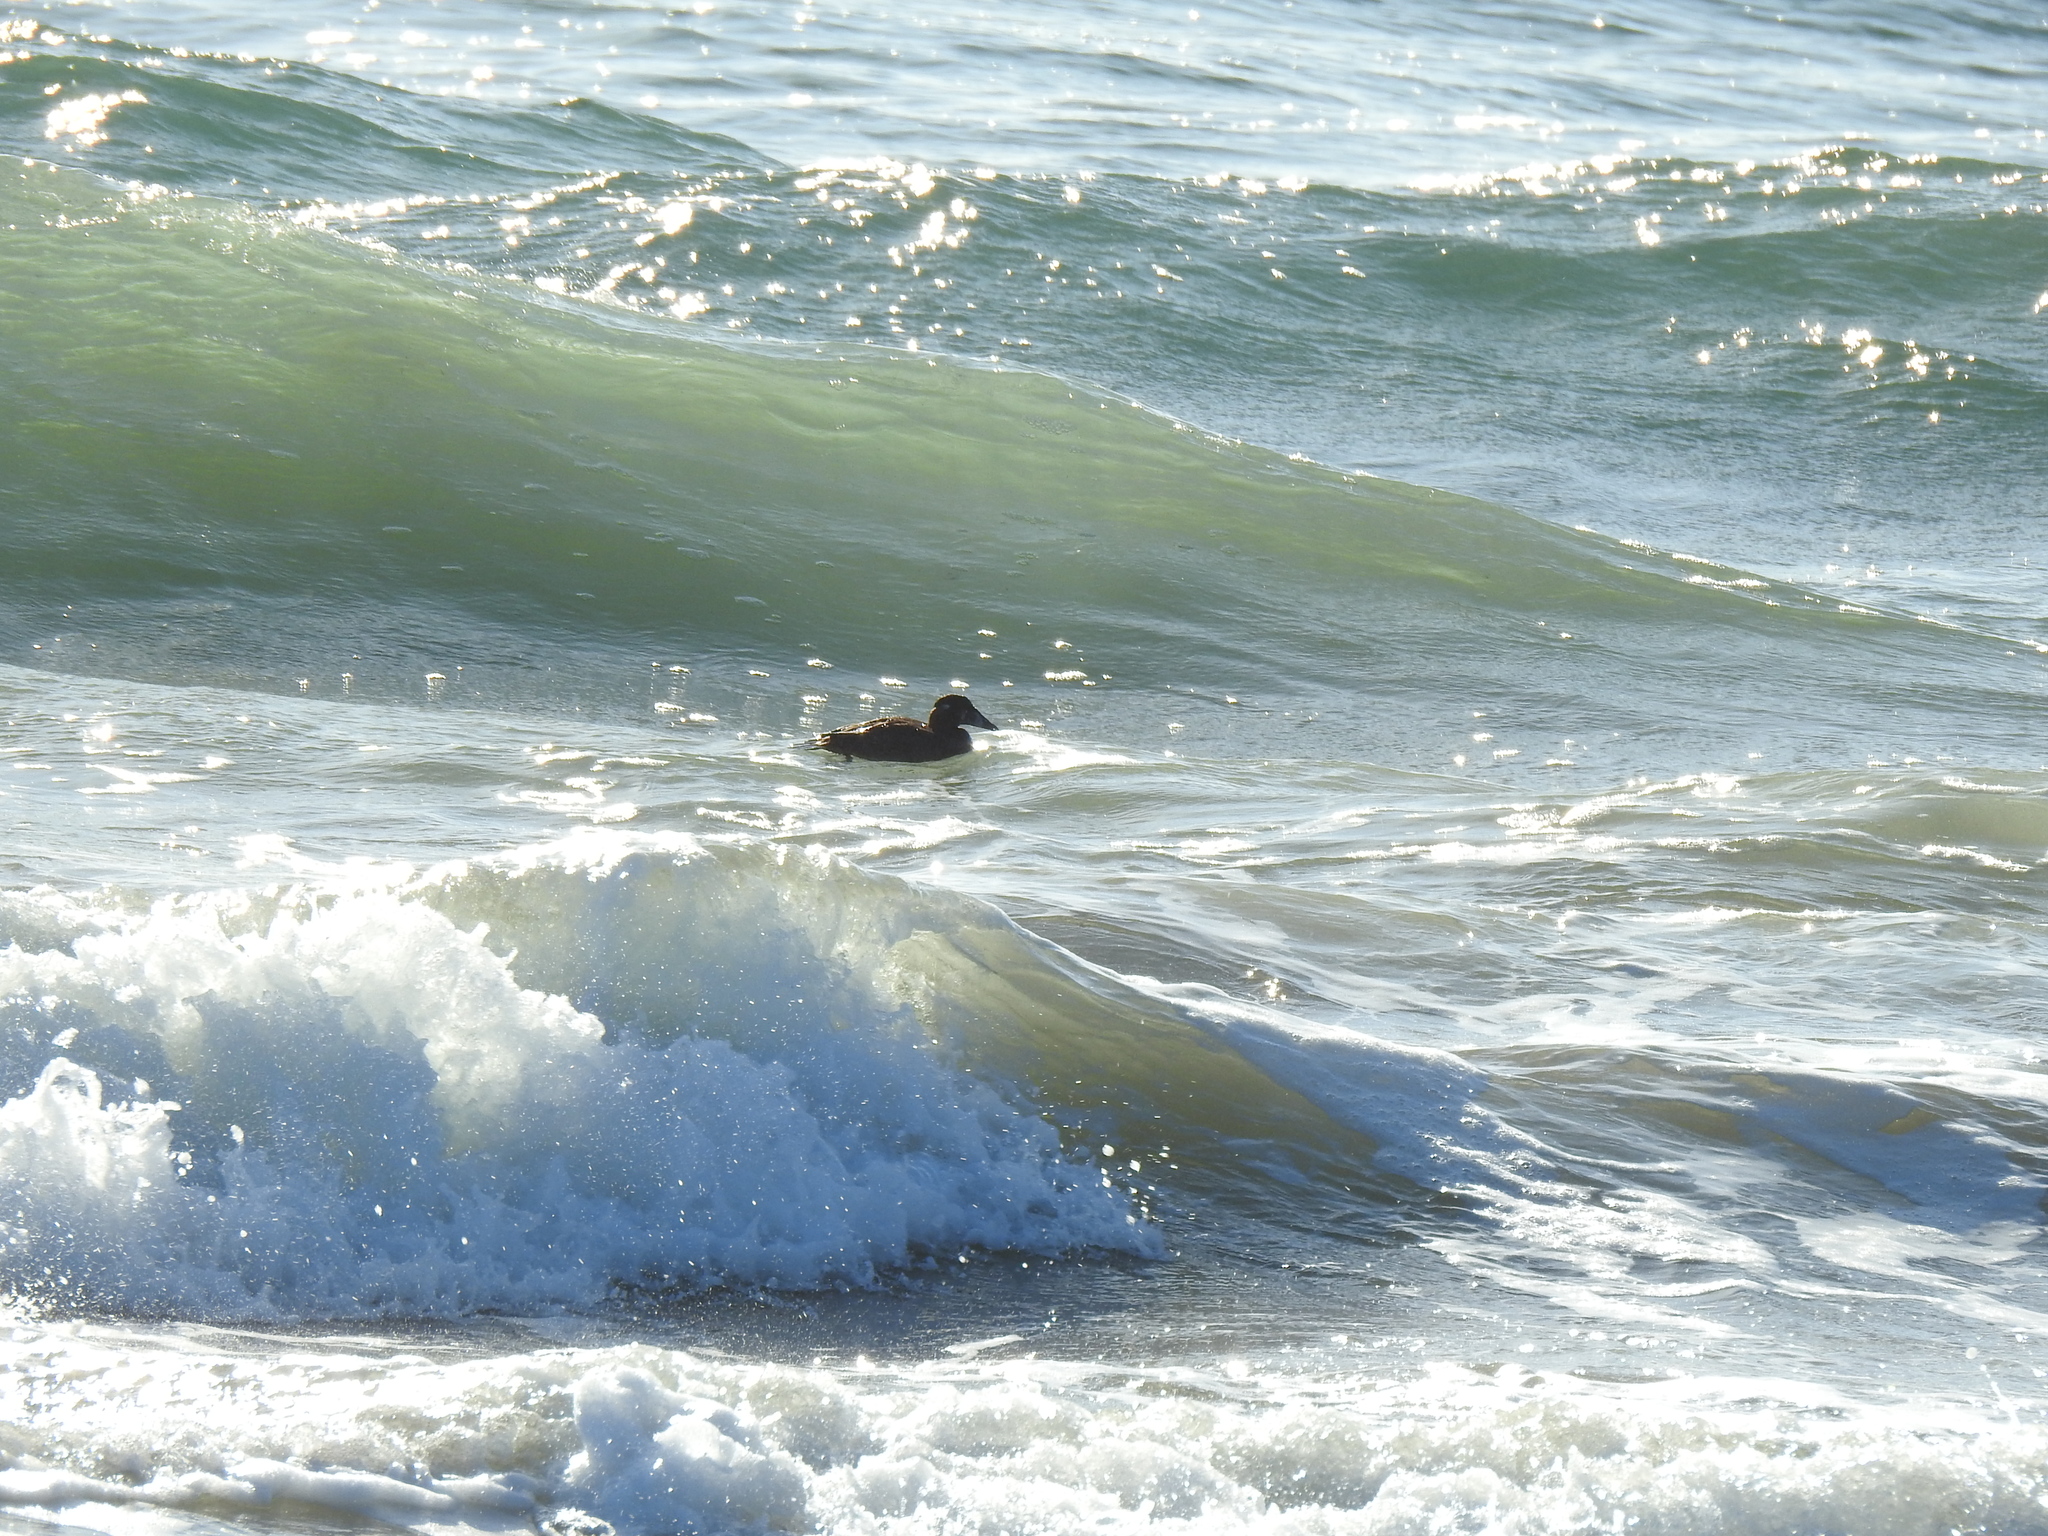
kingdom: Animalia
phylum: Chordata
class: Aves
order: Anseriformes
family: Anatidae
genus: Melanitta
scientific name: Melanitta perspicillata
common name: Surf scoter
